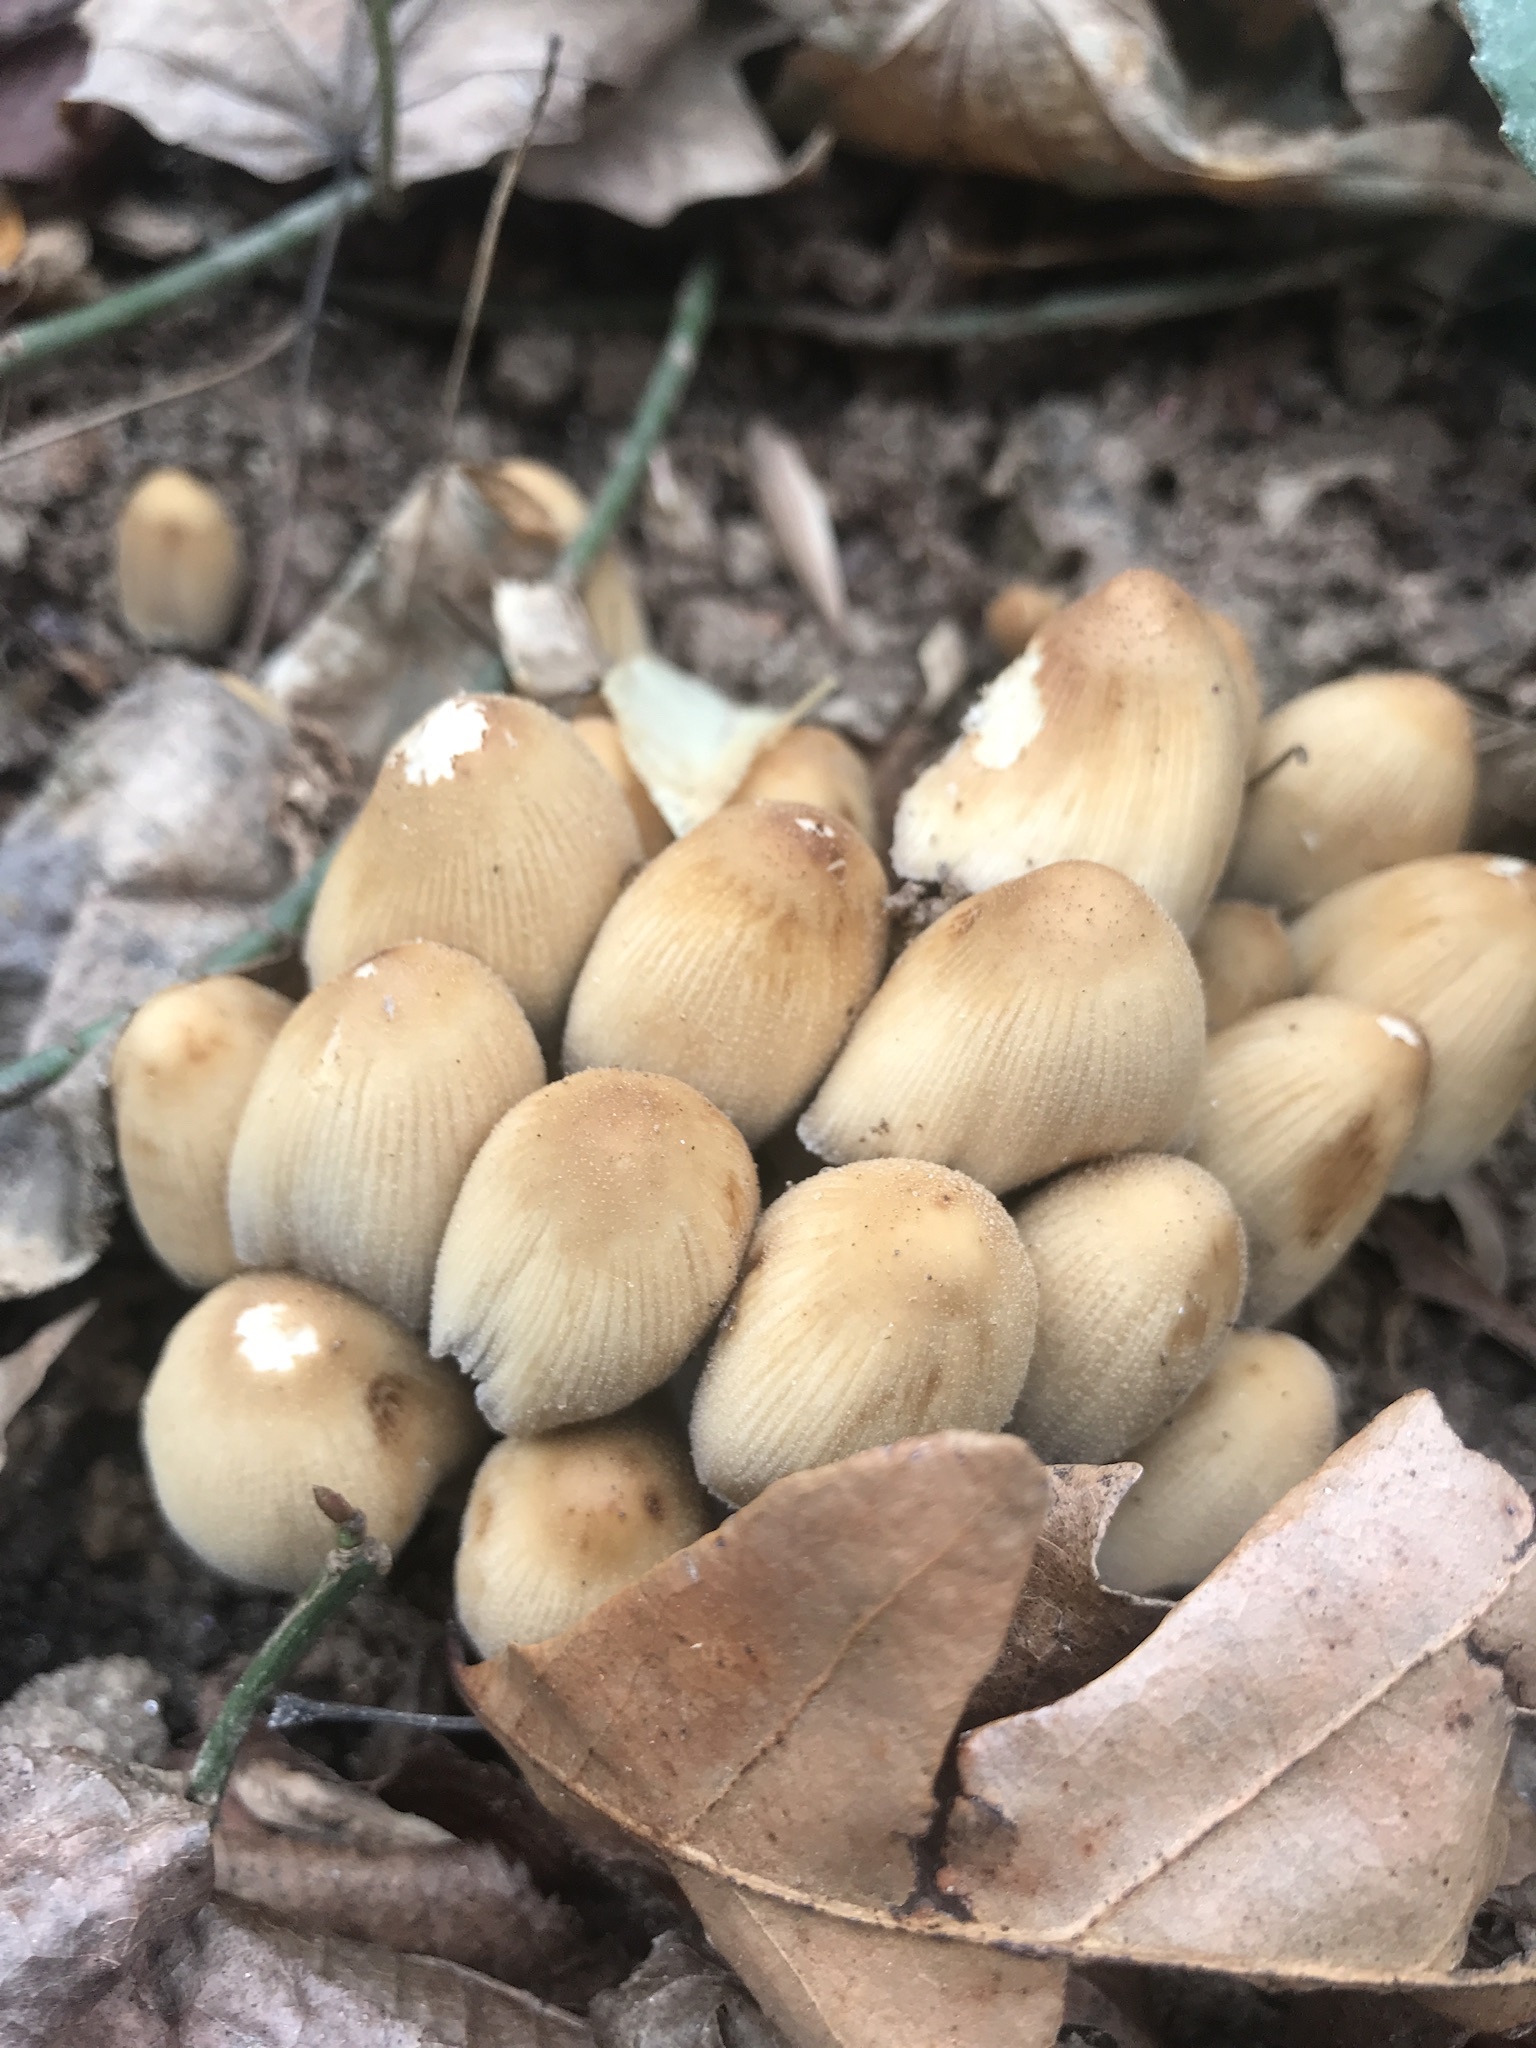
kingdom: Fungi
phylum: Basidiomycota
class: Agaricomycetes
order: Agaricales
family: Psathyrellaceae
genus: Coprinellus
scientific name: Coprinellus micaceus
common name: Glistening ink-cap
